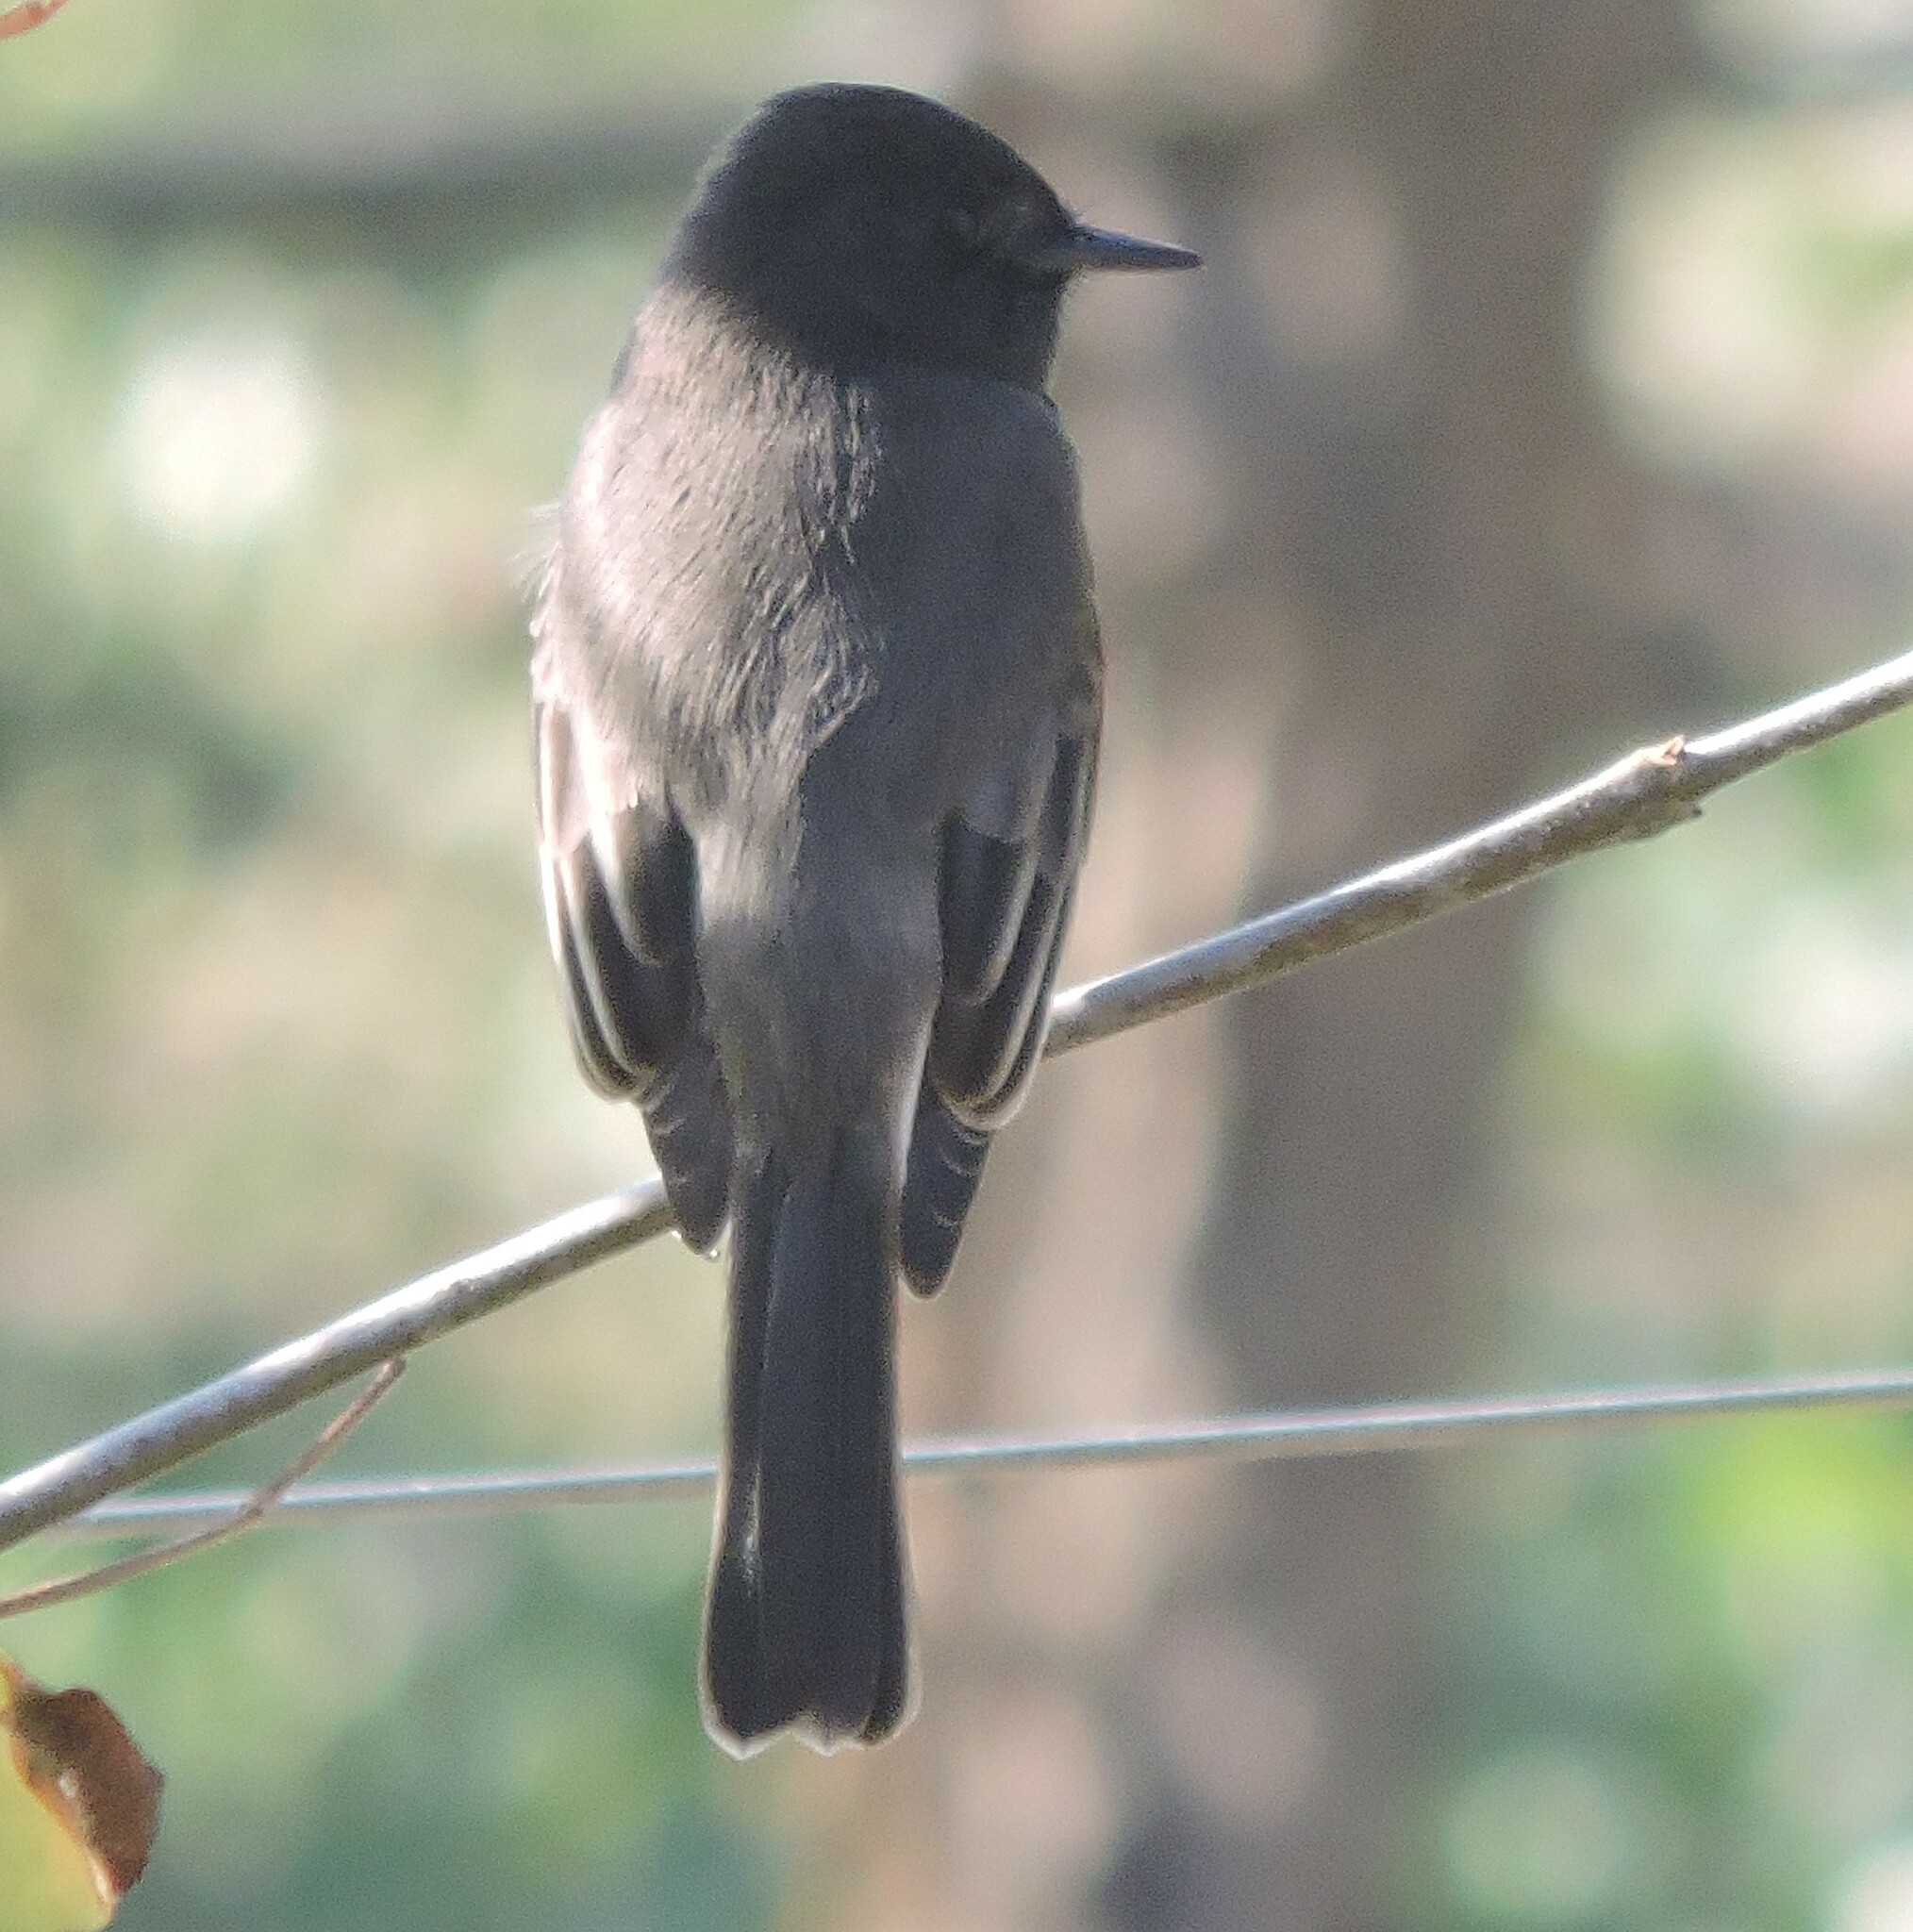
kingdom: Animalia
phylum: Chordata
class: Aves
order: Passeriformes
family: Tyrannidae
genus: Sayornis
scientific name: Sayornis nigricans
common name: Black phoebe
